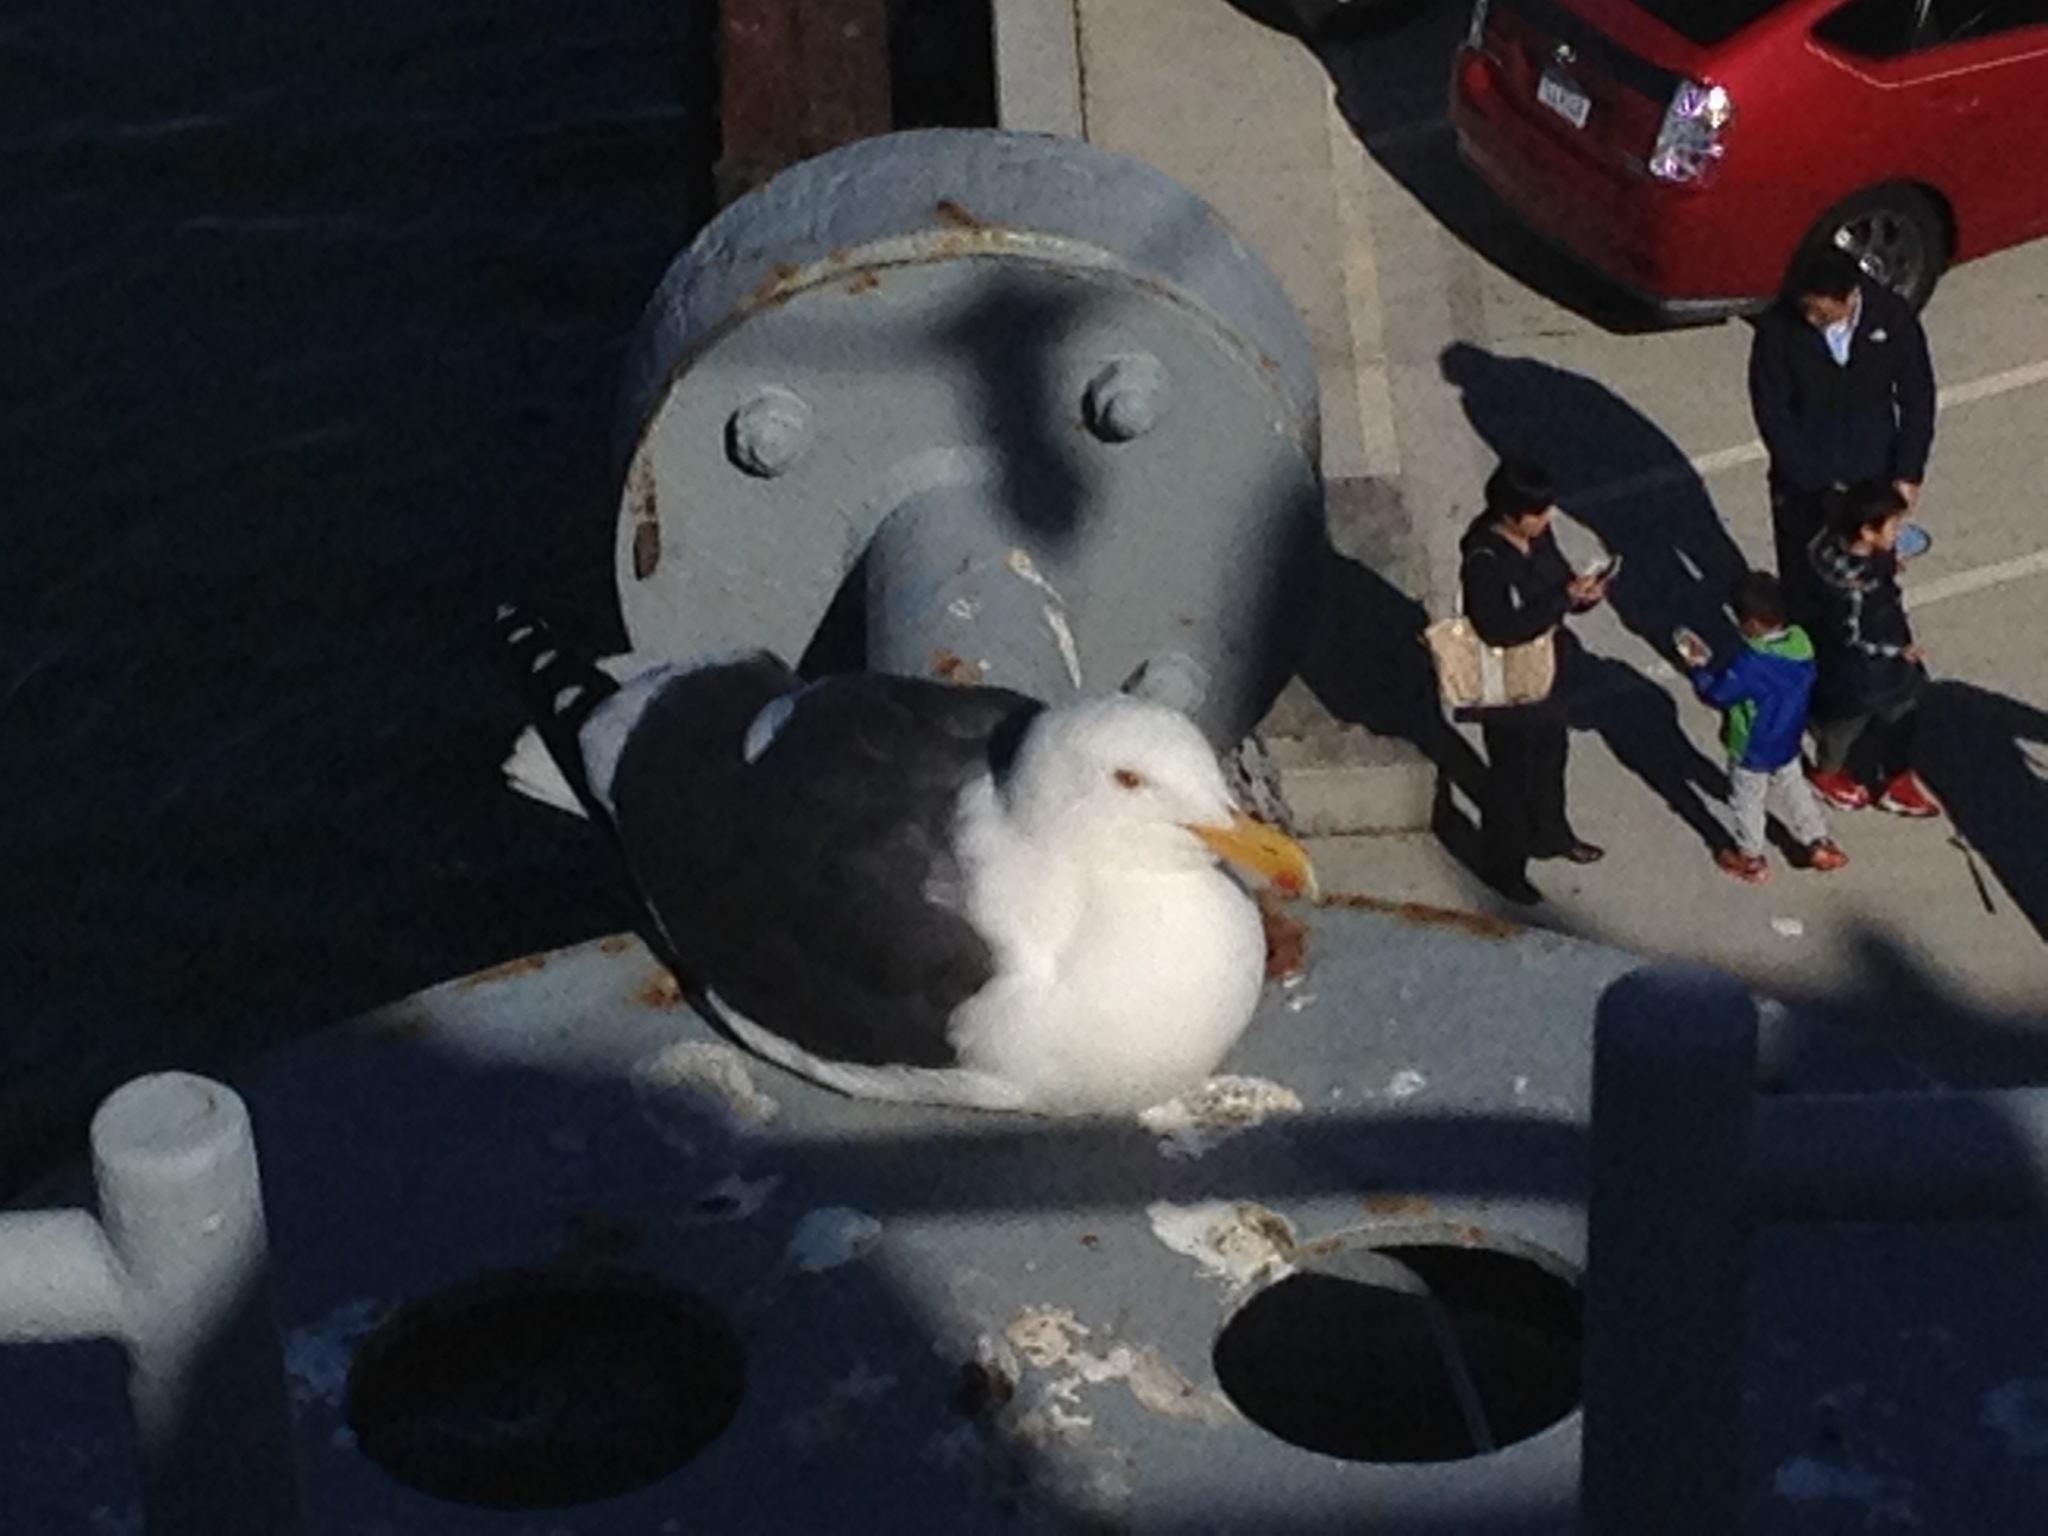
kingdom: Animalia
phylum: Chordata
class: Aves
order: Charadriiformes
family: Laridae
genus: Larus
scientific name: Larus occidentalis
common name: Western gull
